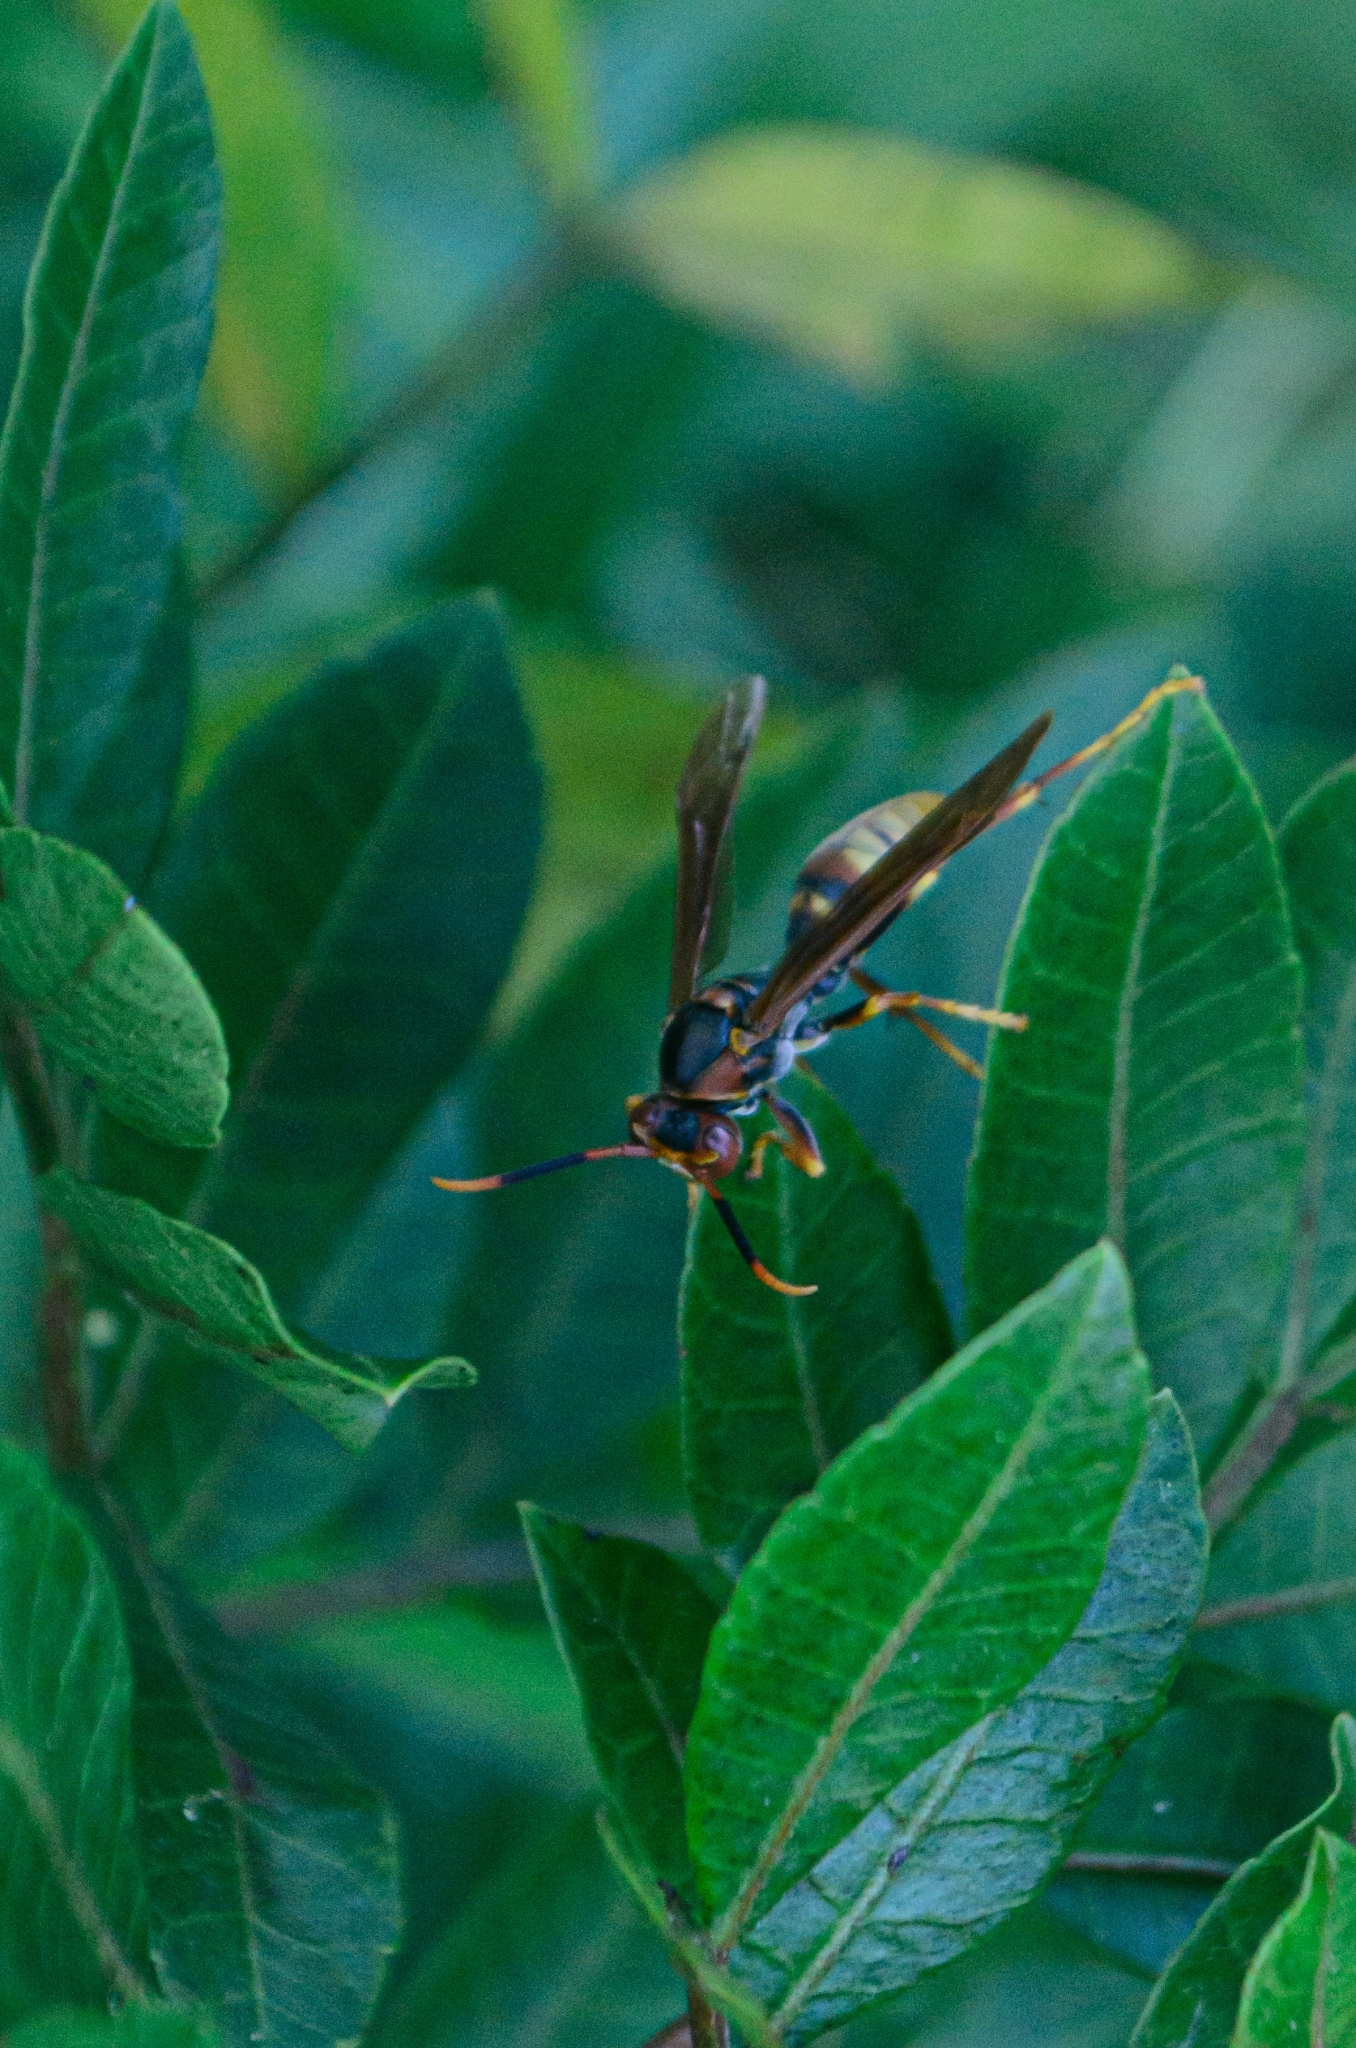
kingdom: Animalia
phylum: Arthropoda
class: Insecta
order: Hymenoptera
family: Eumenidae
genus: Polistes
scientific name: Polistes cavapytiformis
